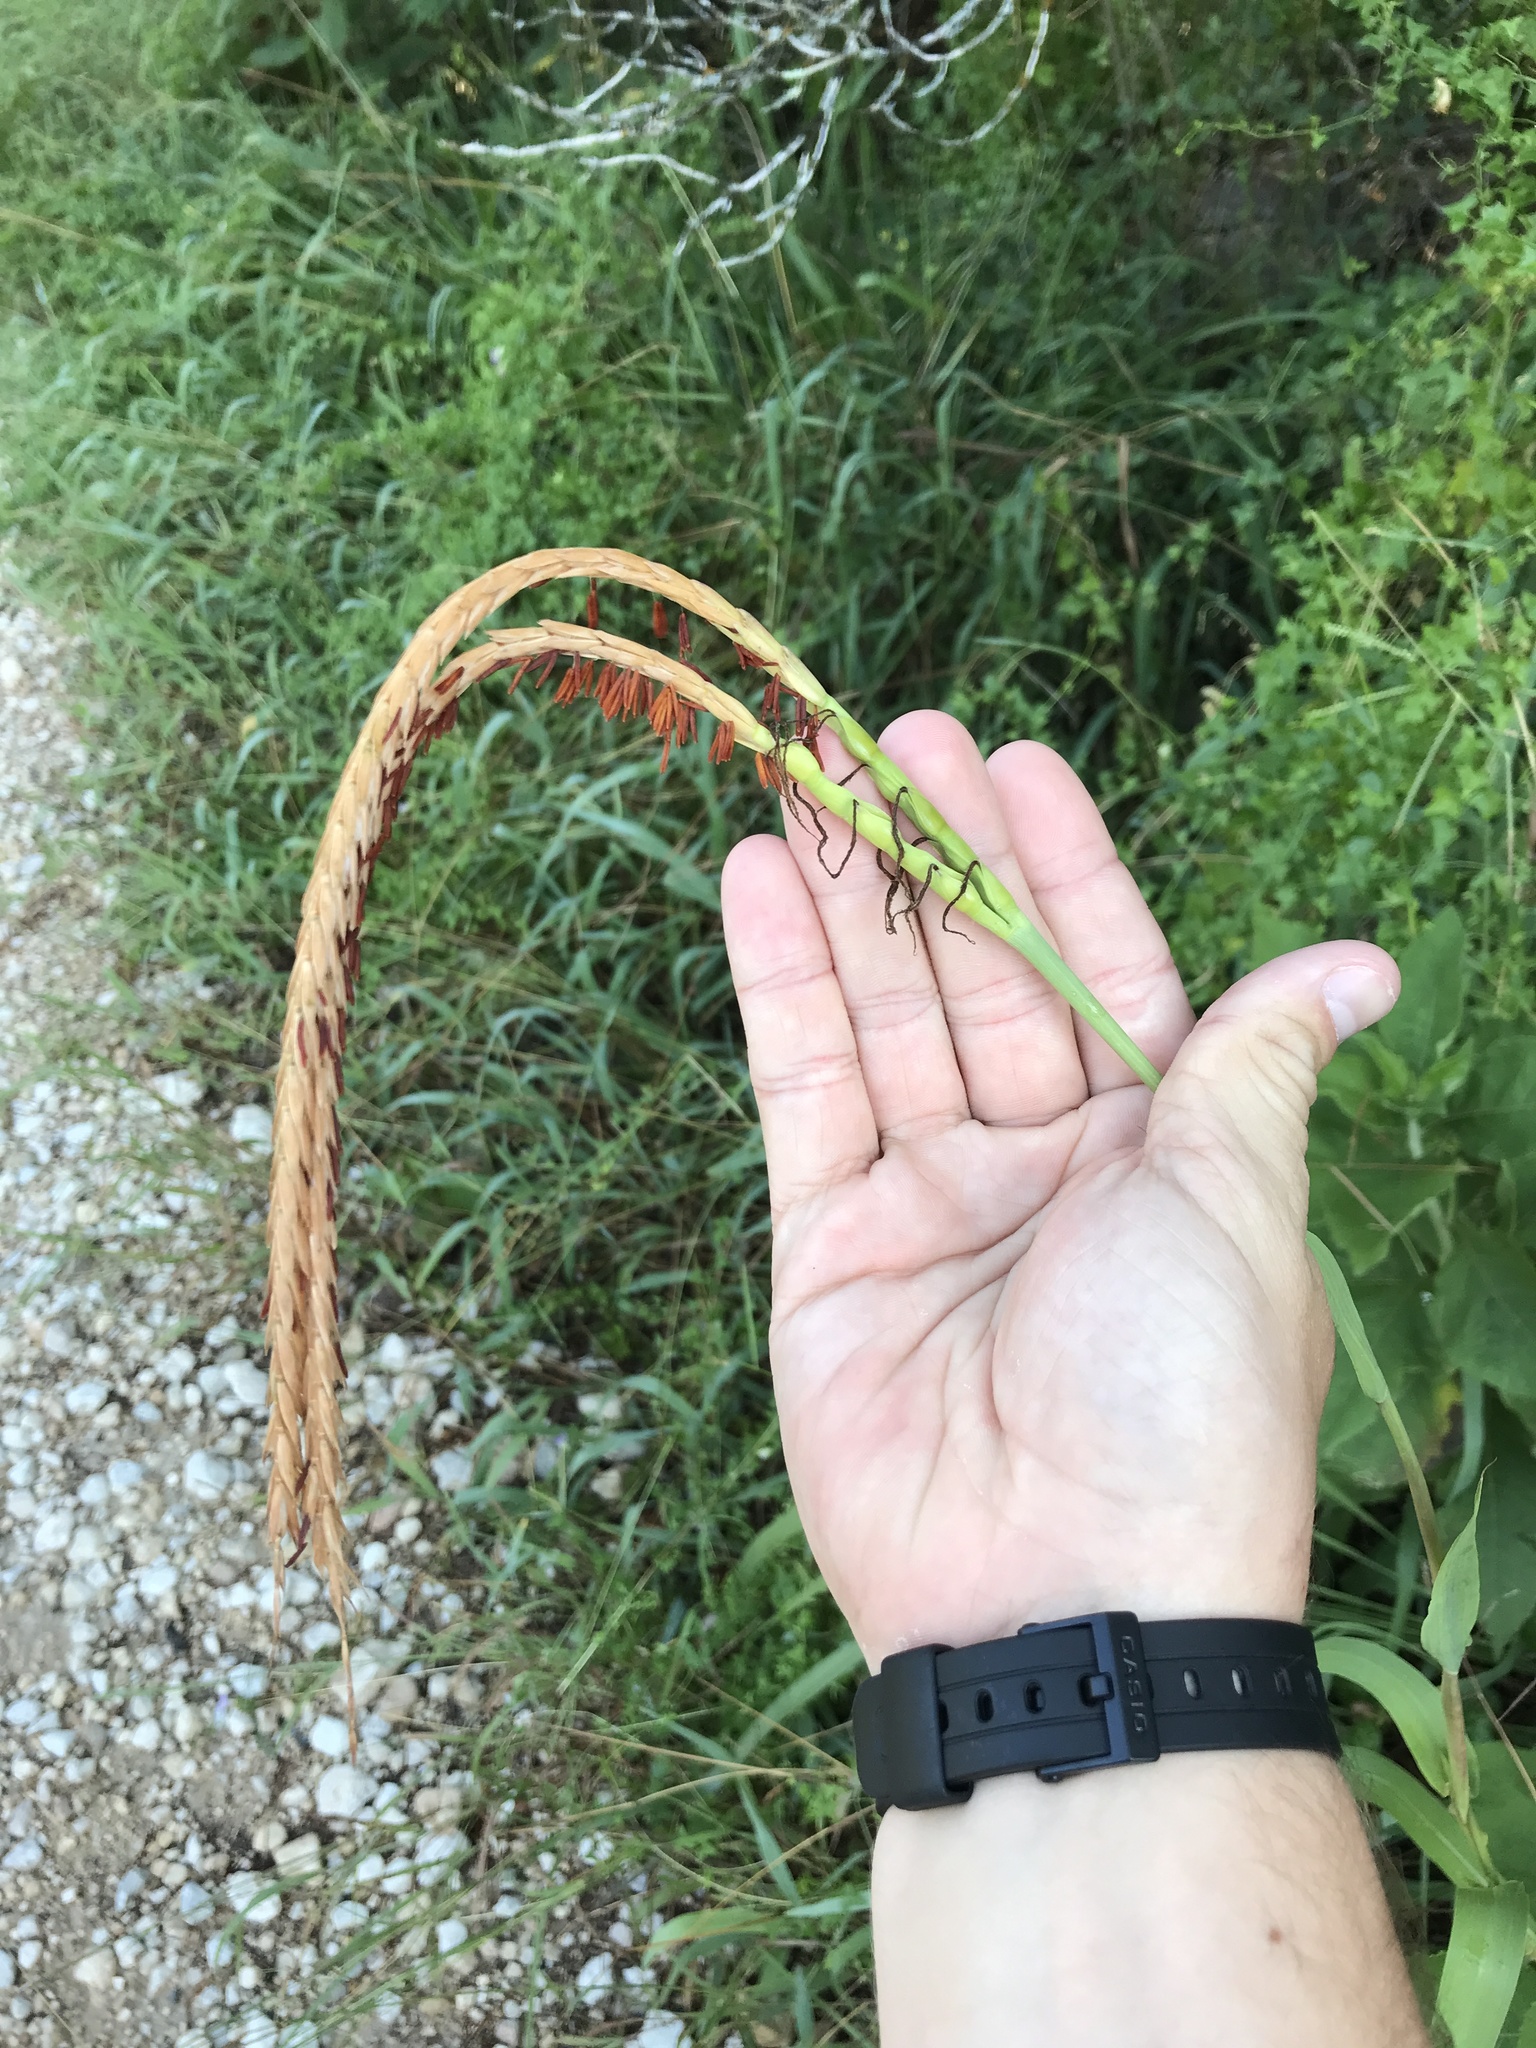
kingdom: Plantae
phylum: Tracheophyta
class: Liliopsida
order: Poales
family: Poaceae
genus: Tripsacum
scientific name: Tripsacum dactyloides
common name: Buffalo-grass
